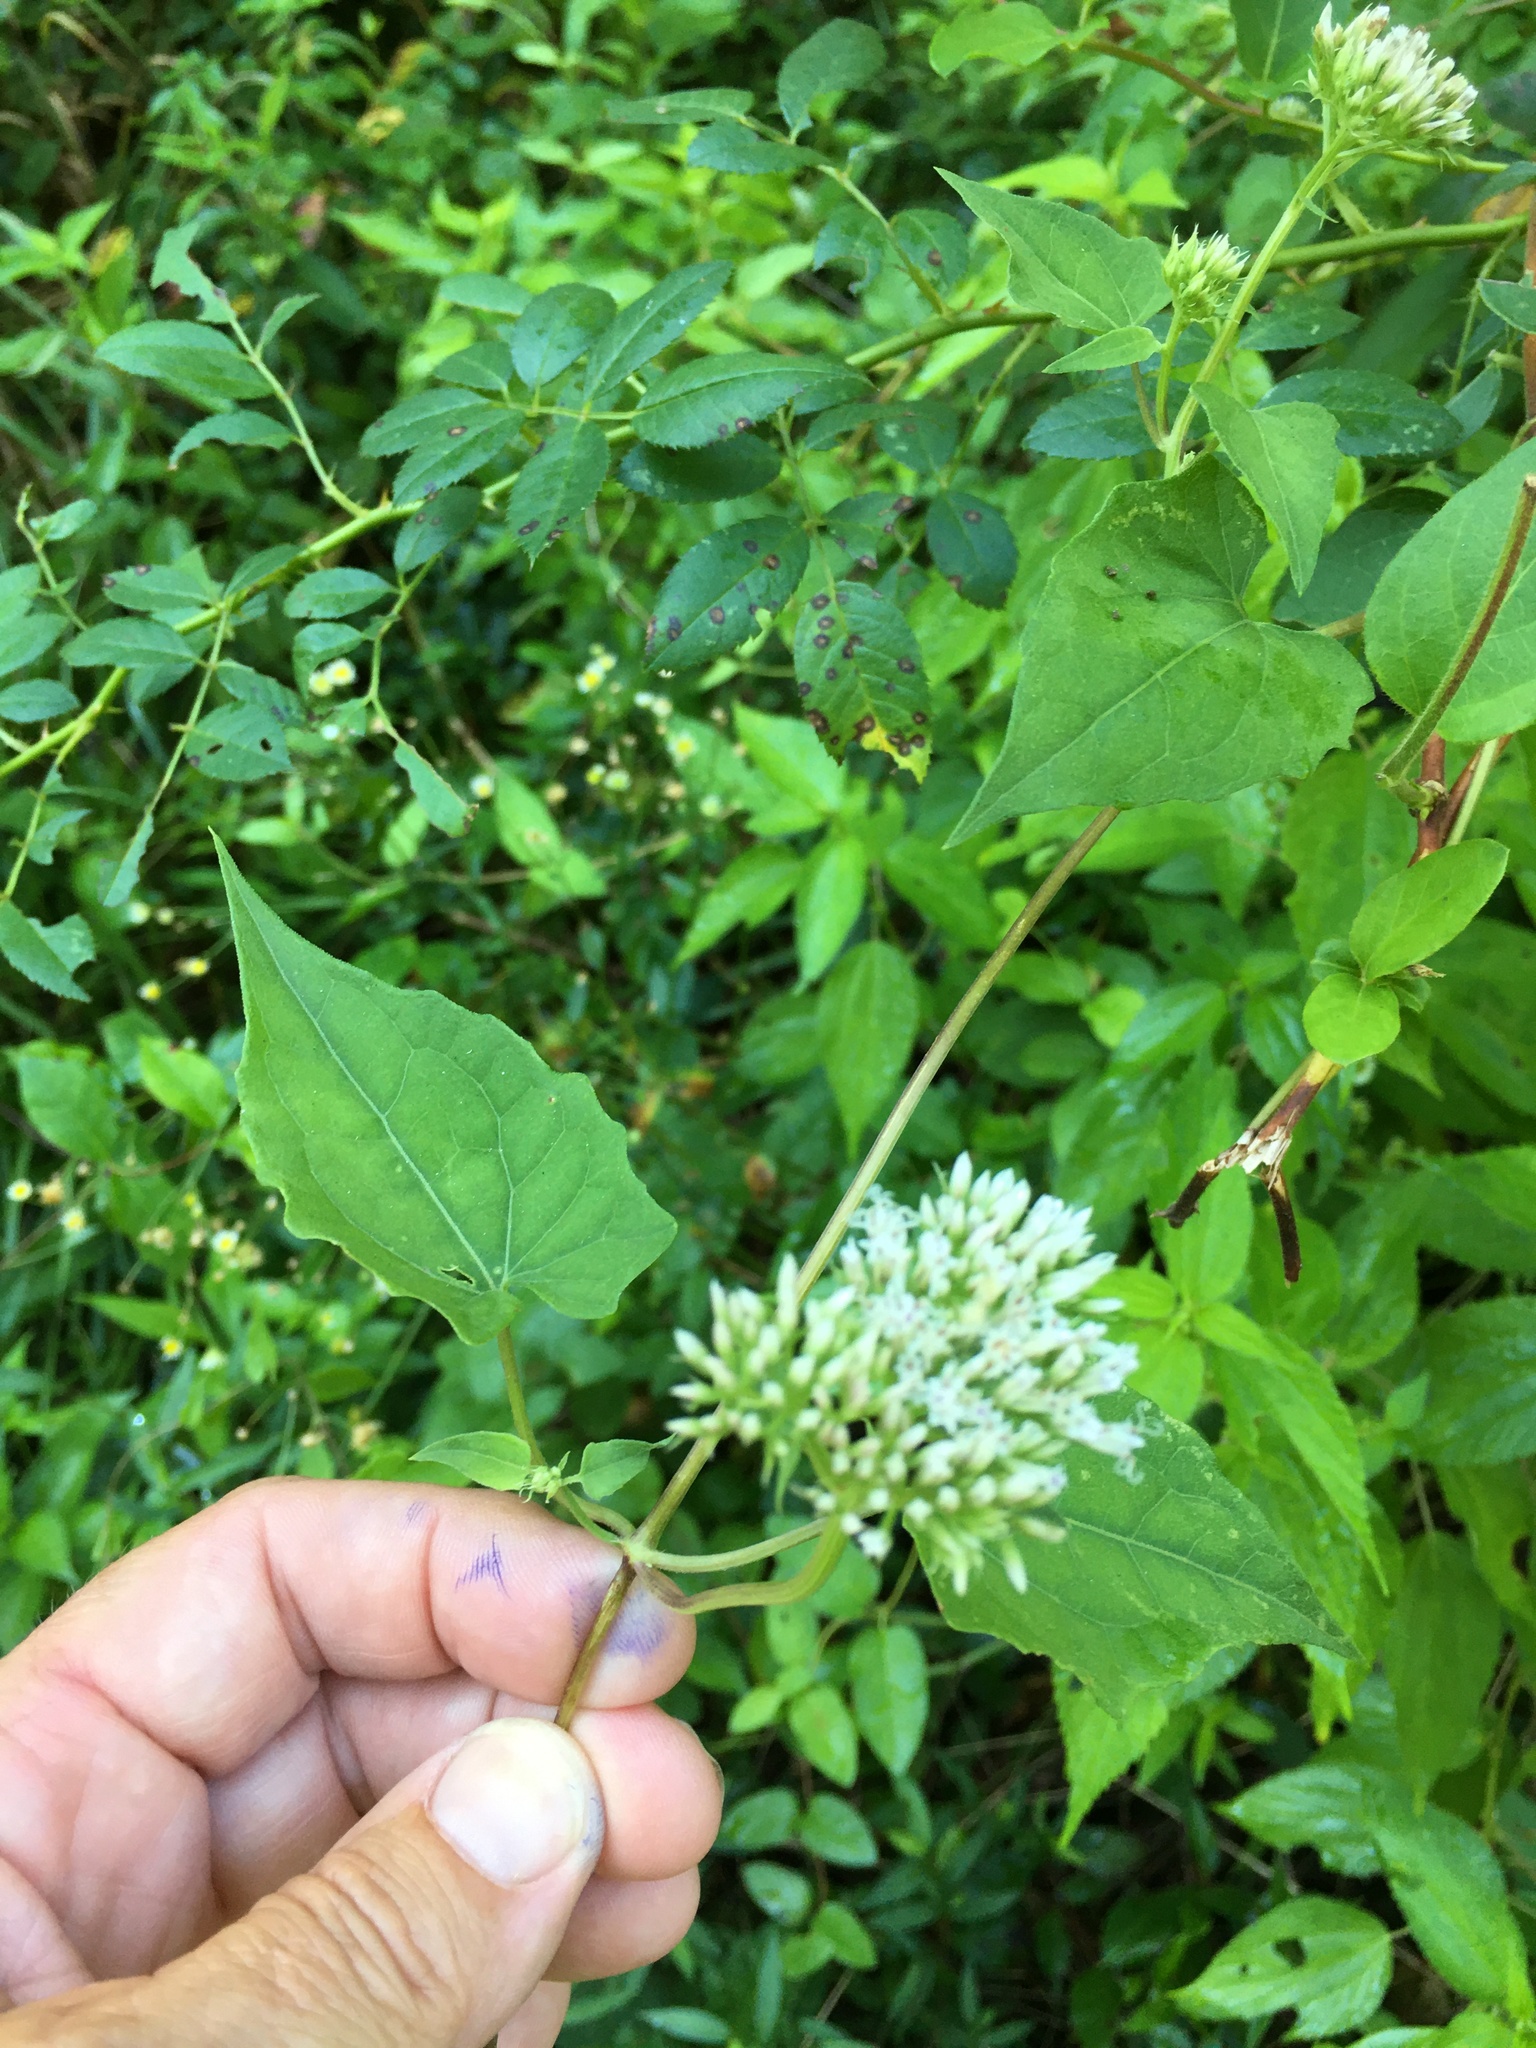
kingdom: Plantae
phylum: Tracheophyta
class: Magnoliopsida
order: Asterales
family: Asteraceae
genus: Mikania
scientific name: Mikania scandens
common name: Climbing hempvine
